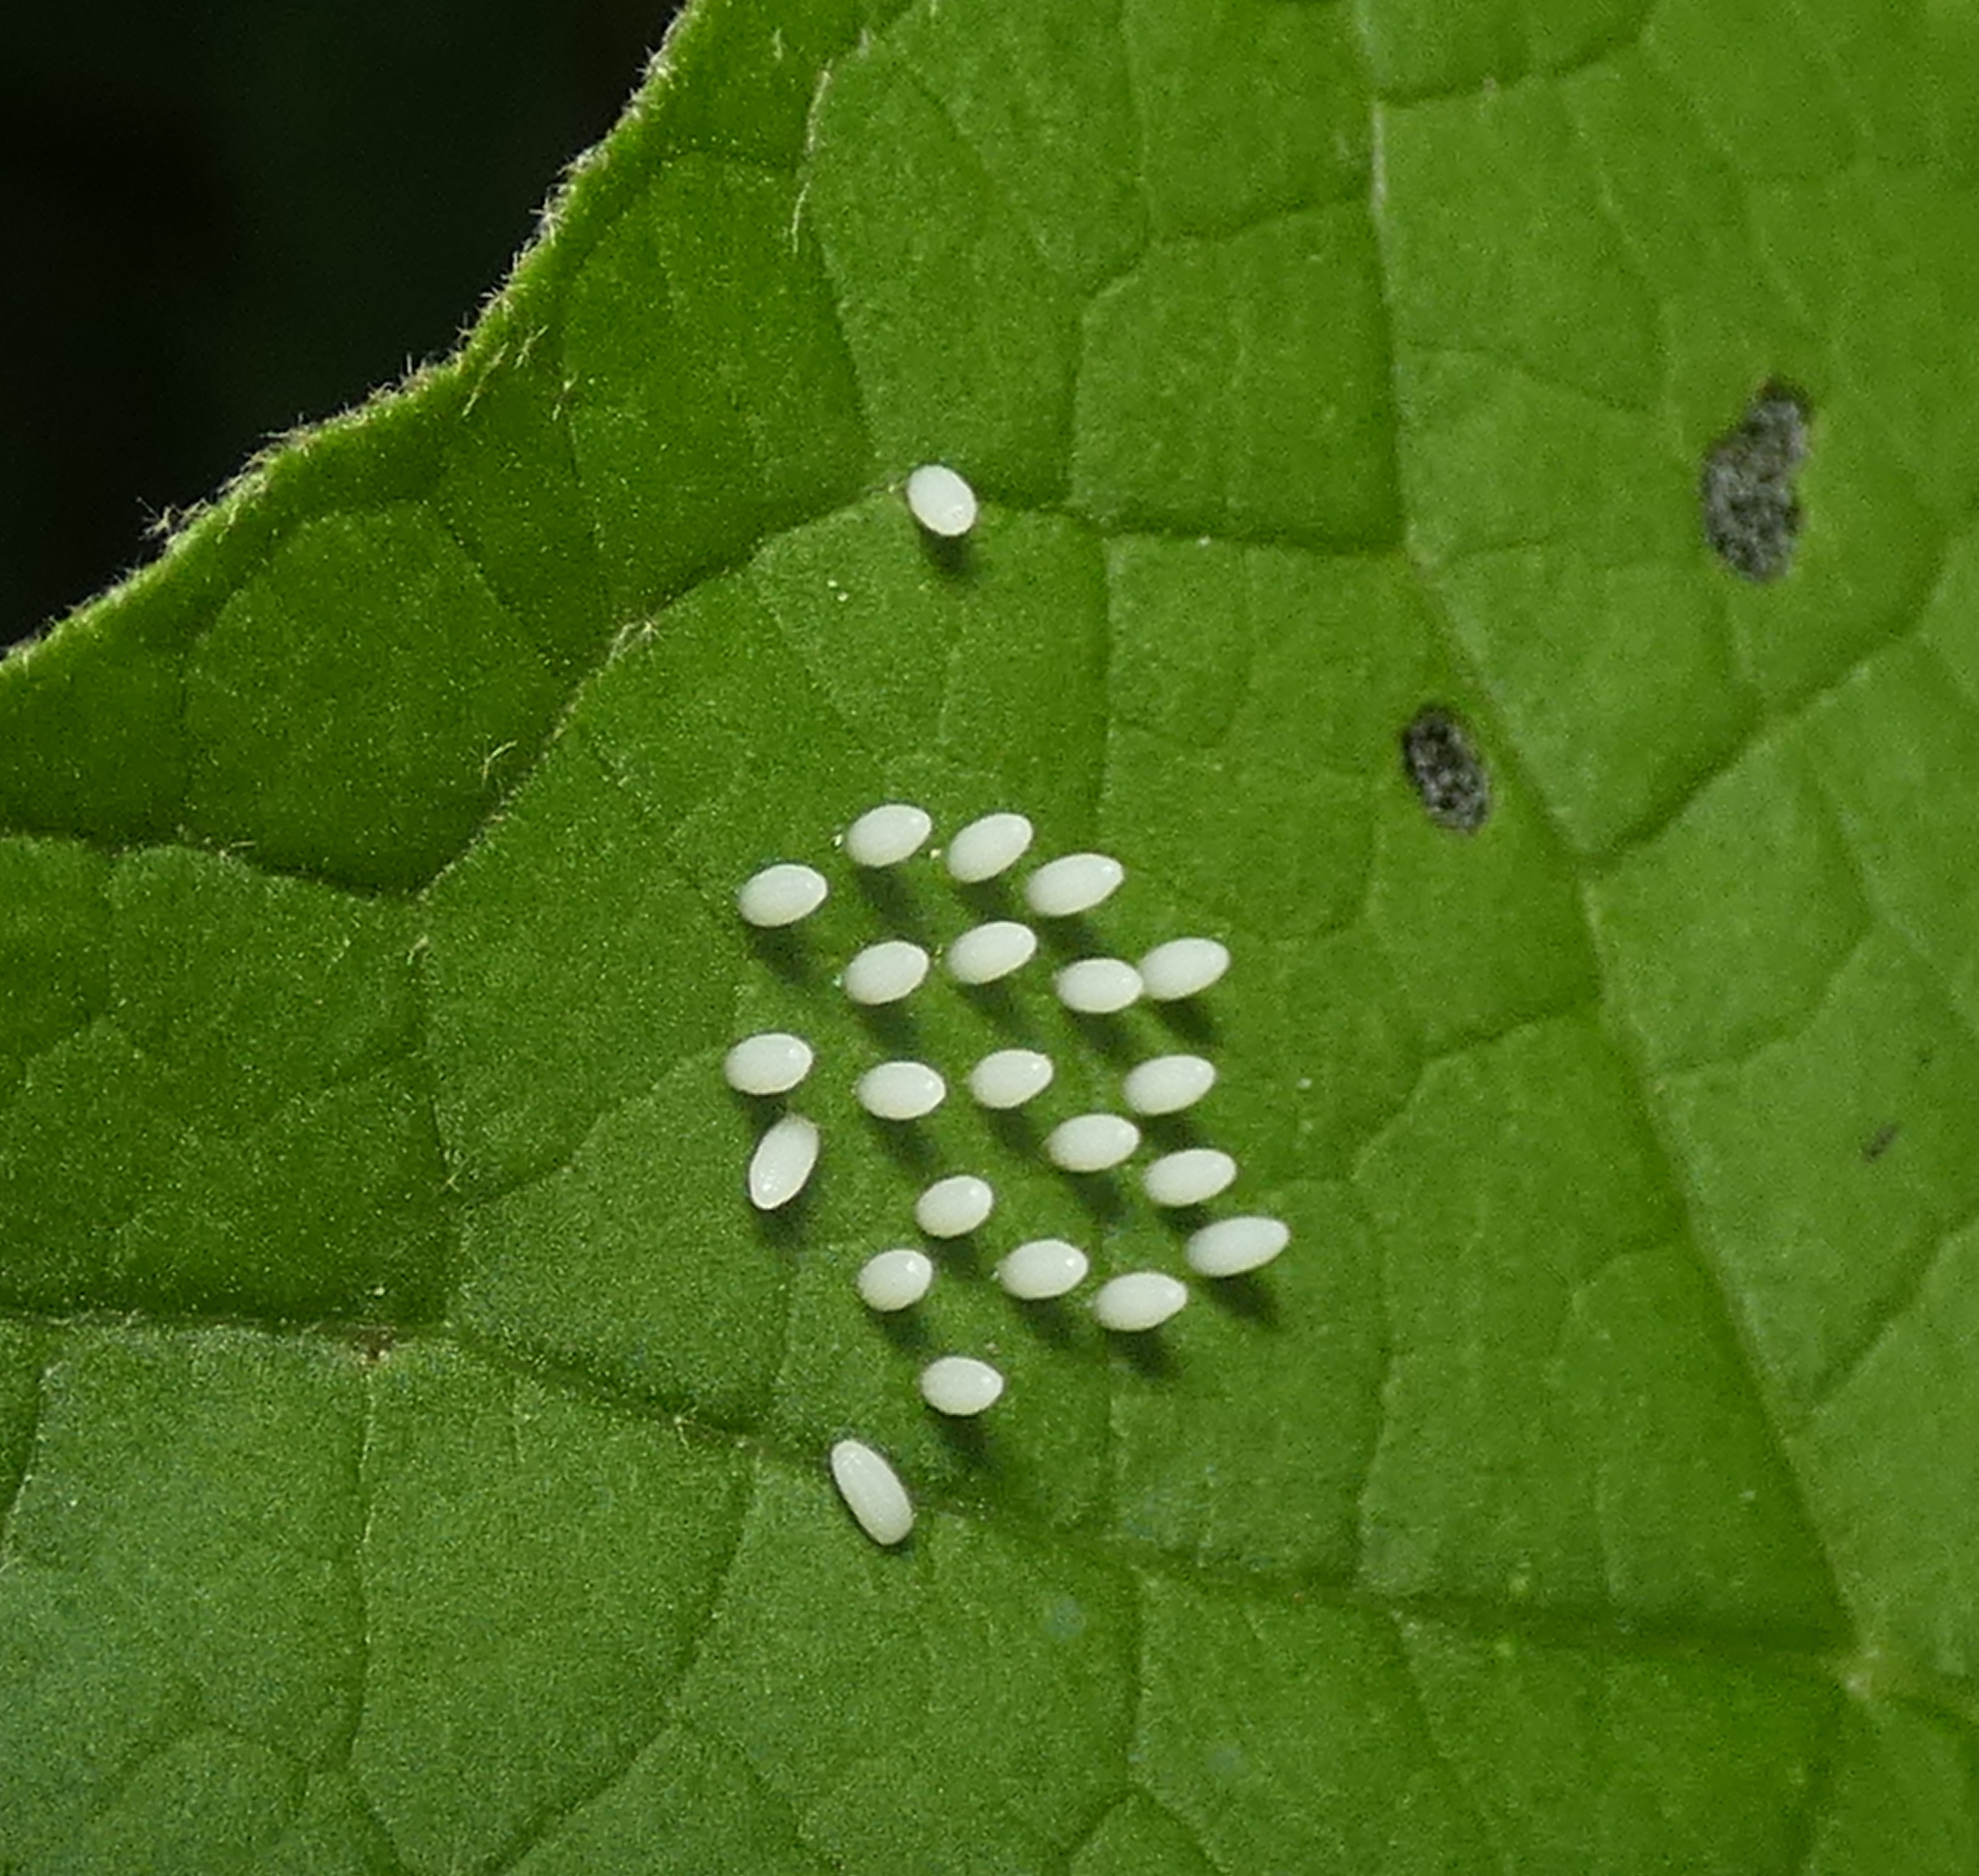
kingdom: Animalia
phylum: Arthropoda
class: Insecta
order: Lepidoptera
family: Nymphalidae
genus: Mechanitis
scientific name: Mechanitis lysimnia
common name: Lysimnia tigerwing
